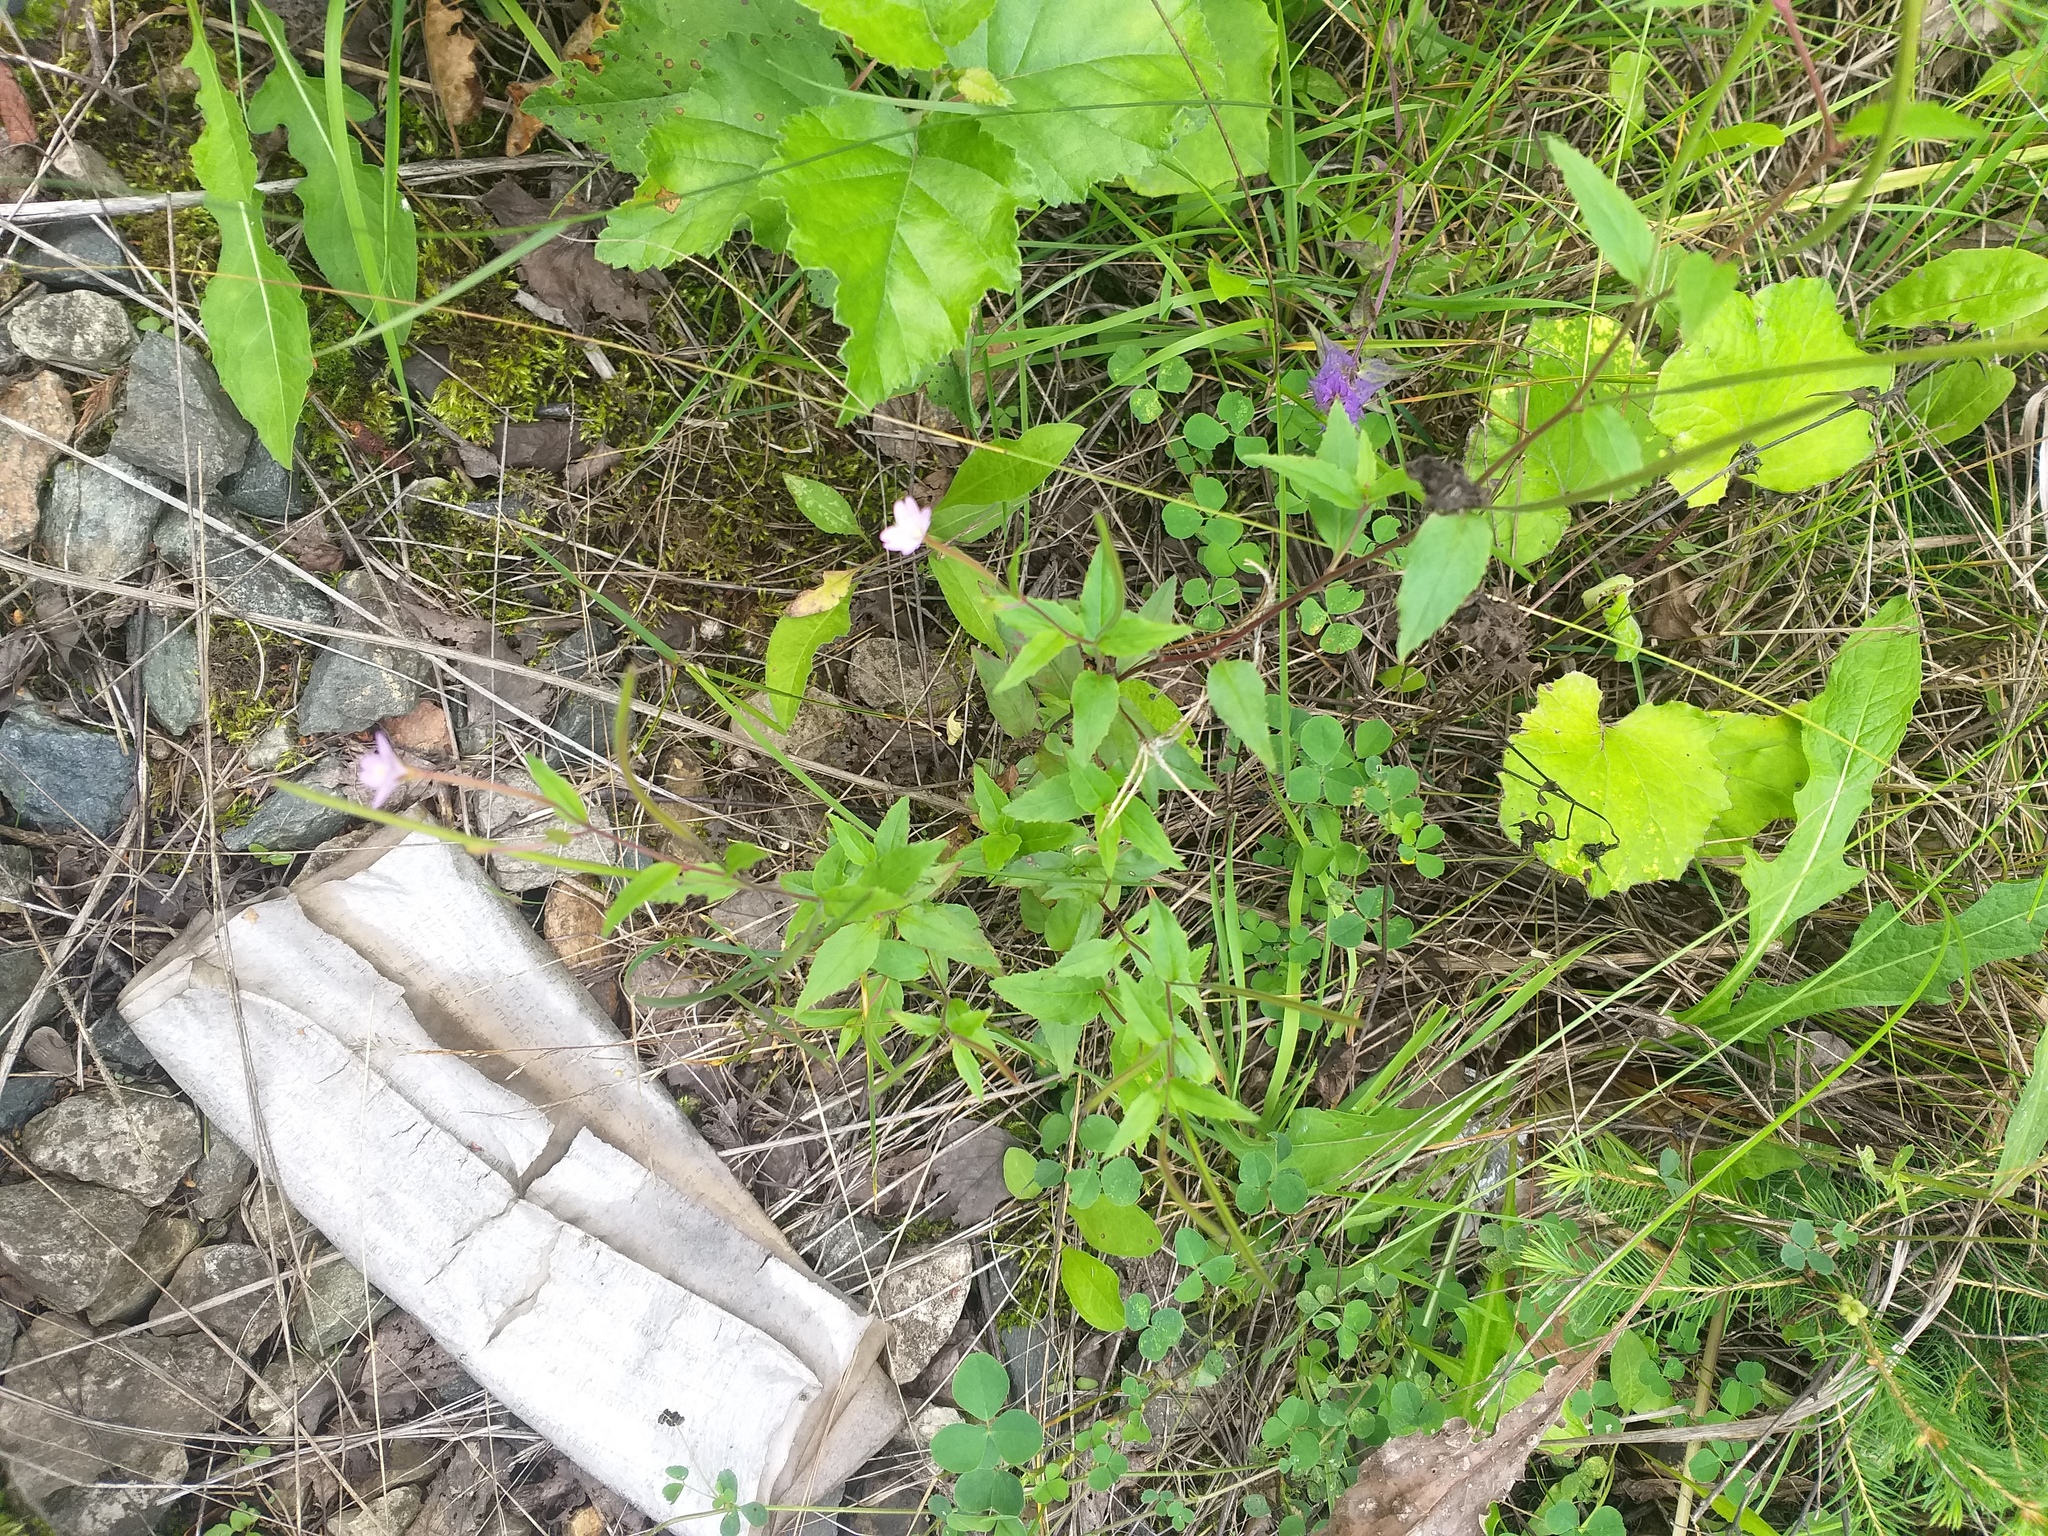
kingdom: Plantae
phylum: Tracheophyta
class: Magnoliopsida
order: Myrtales
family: Onagraceae
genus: Epilobium
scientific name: Epilobium montanum
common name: Broad-leaved willowherb
